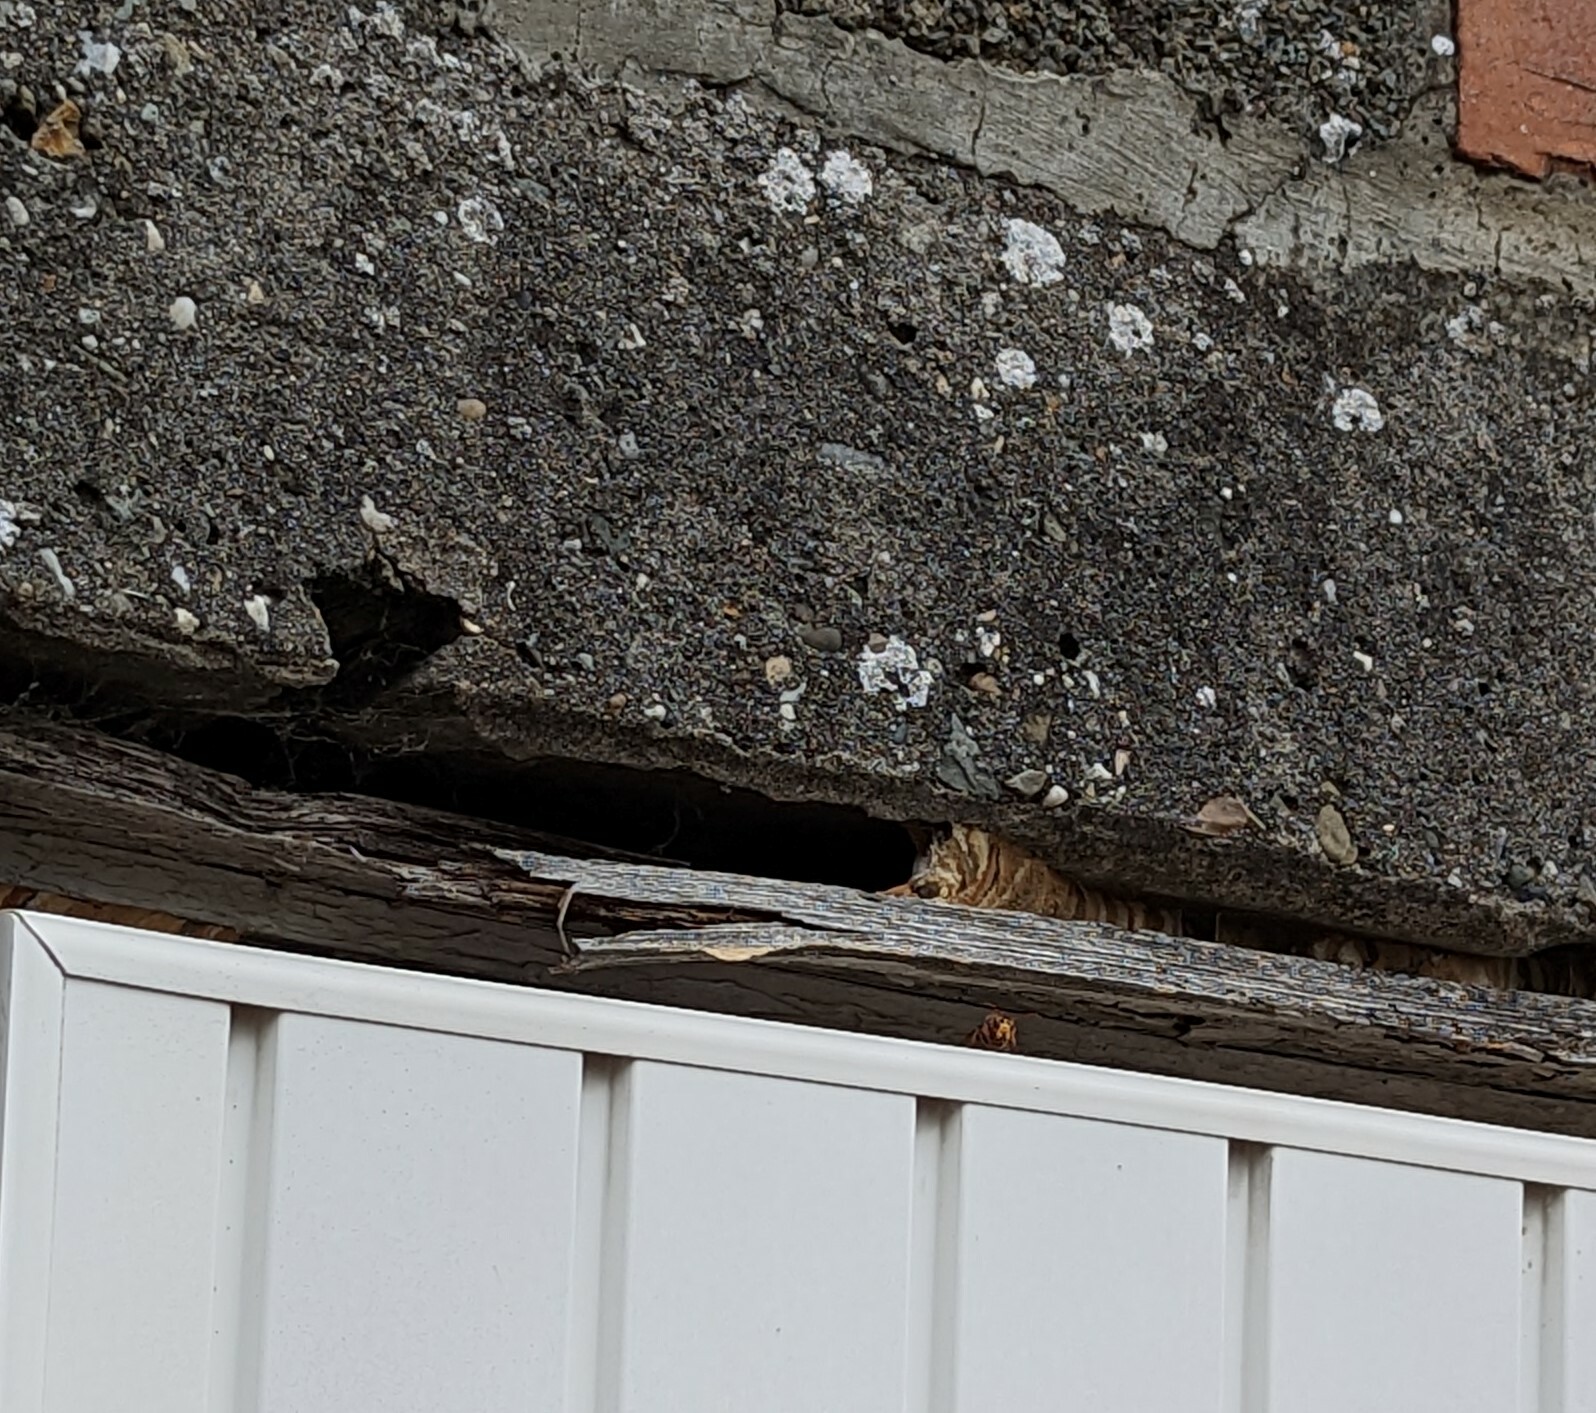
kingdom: Animalia
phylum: Arthropoda
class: Insecta
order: Hymenoptera
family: Vespidae
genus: Vespa
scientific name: Vespa crabro
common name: Hornet
